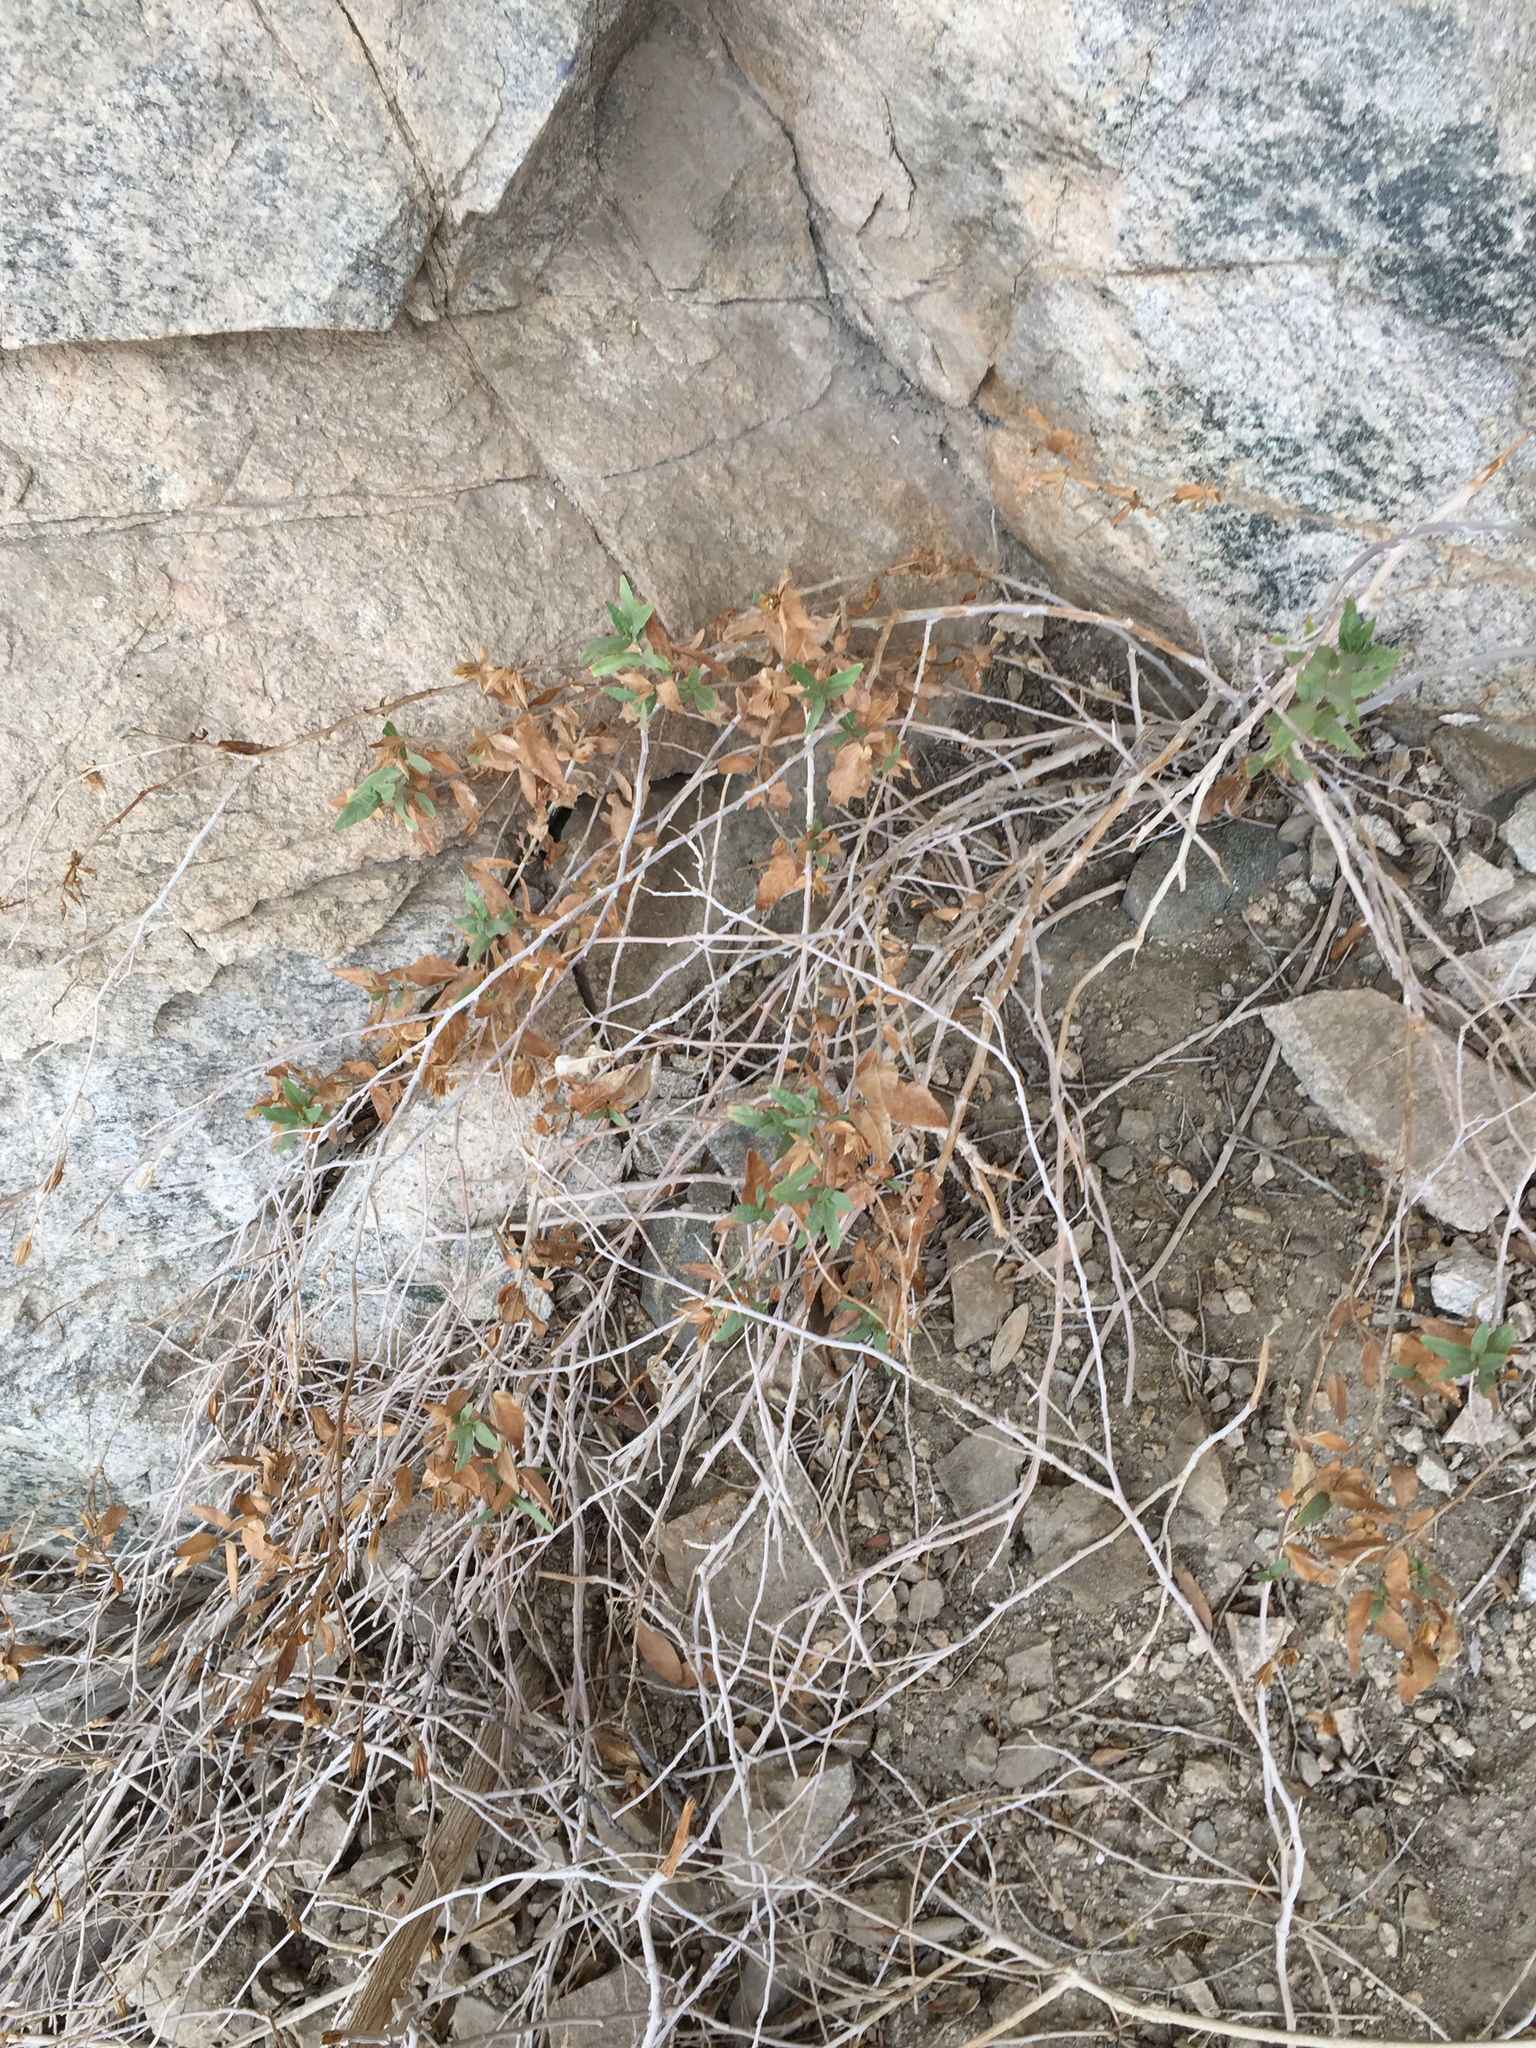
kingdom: Plantae
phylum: Tracheophyta
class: Magnoliopsida
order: Asterales
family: Asteraceae
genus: Trixis
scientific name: Trixis californica
